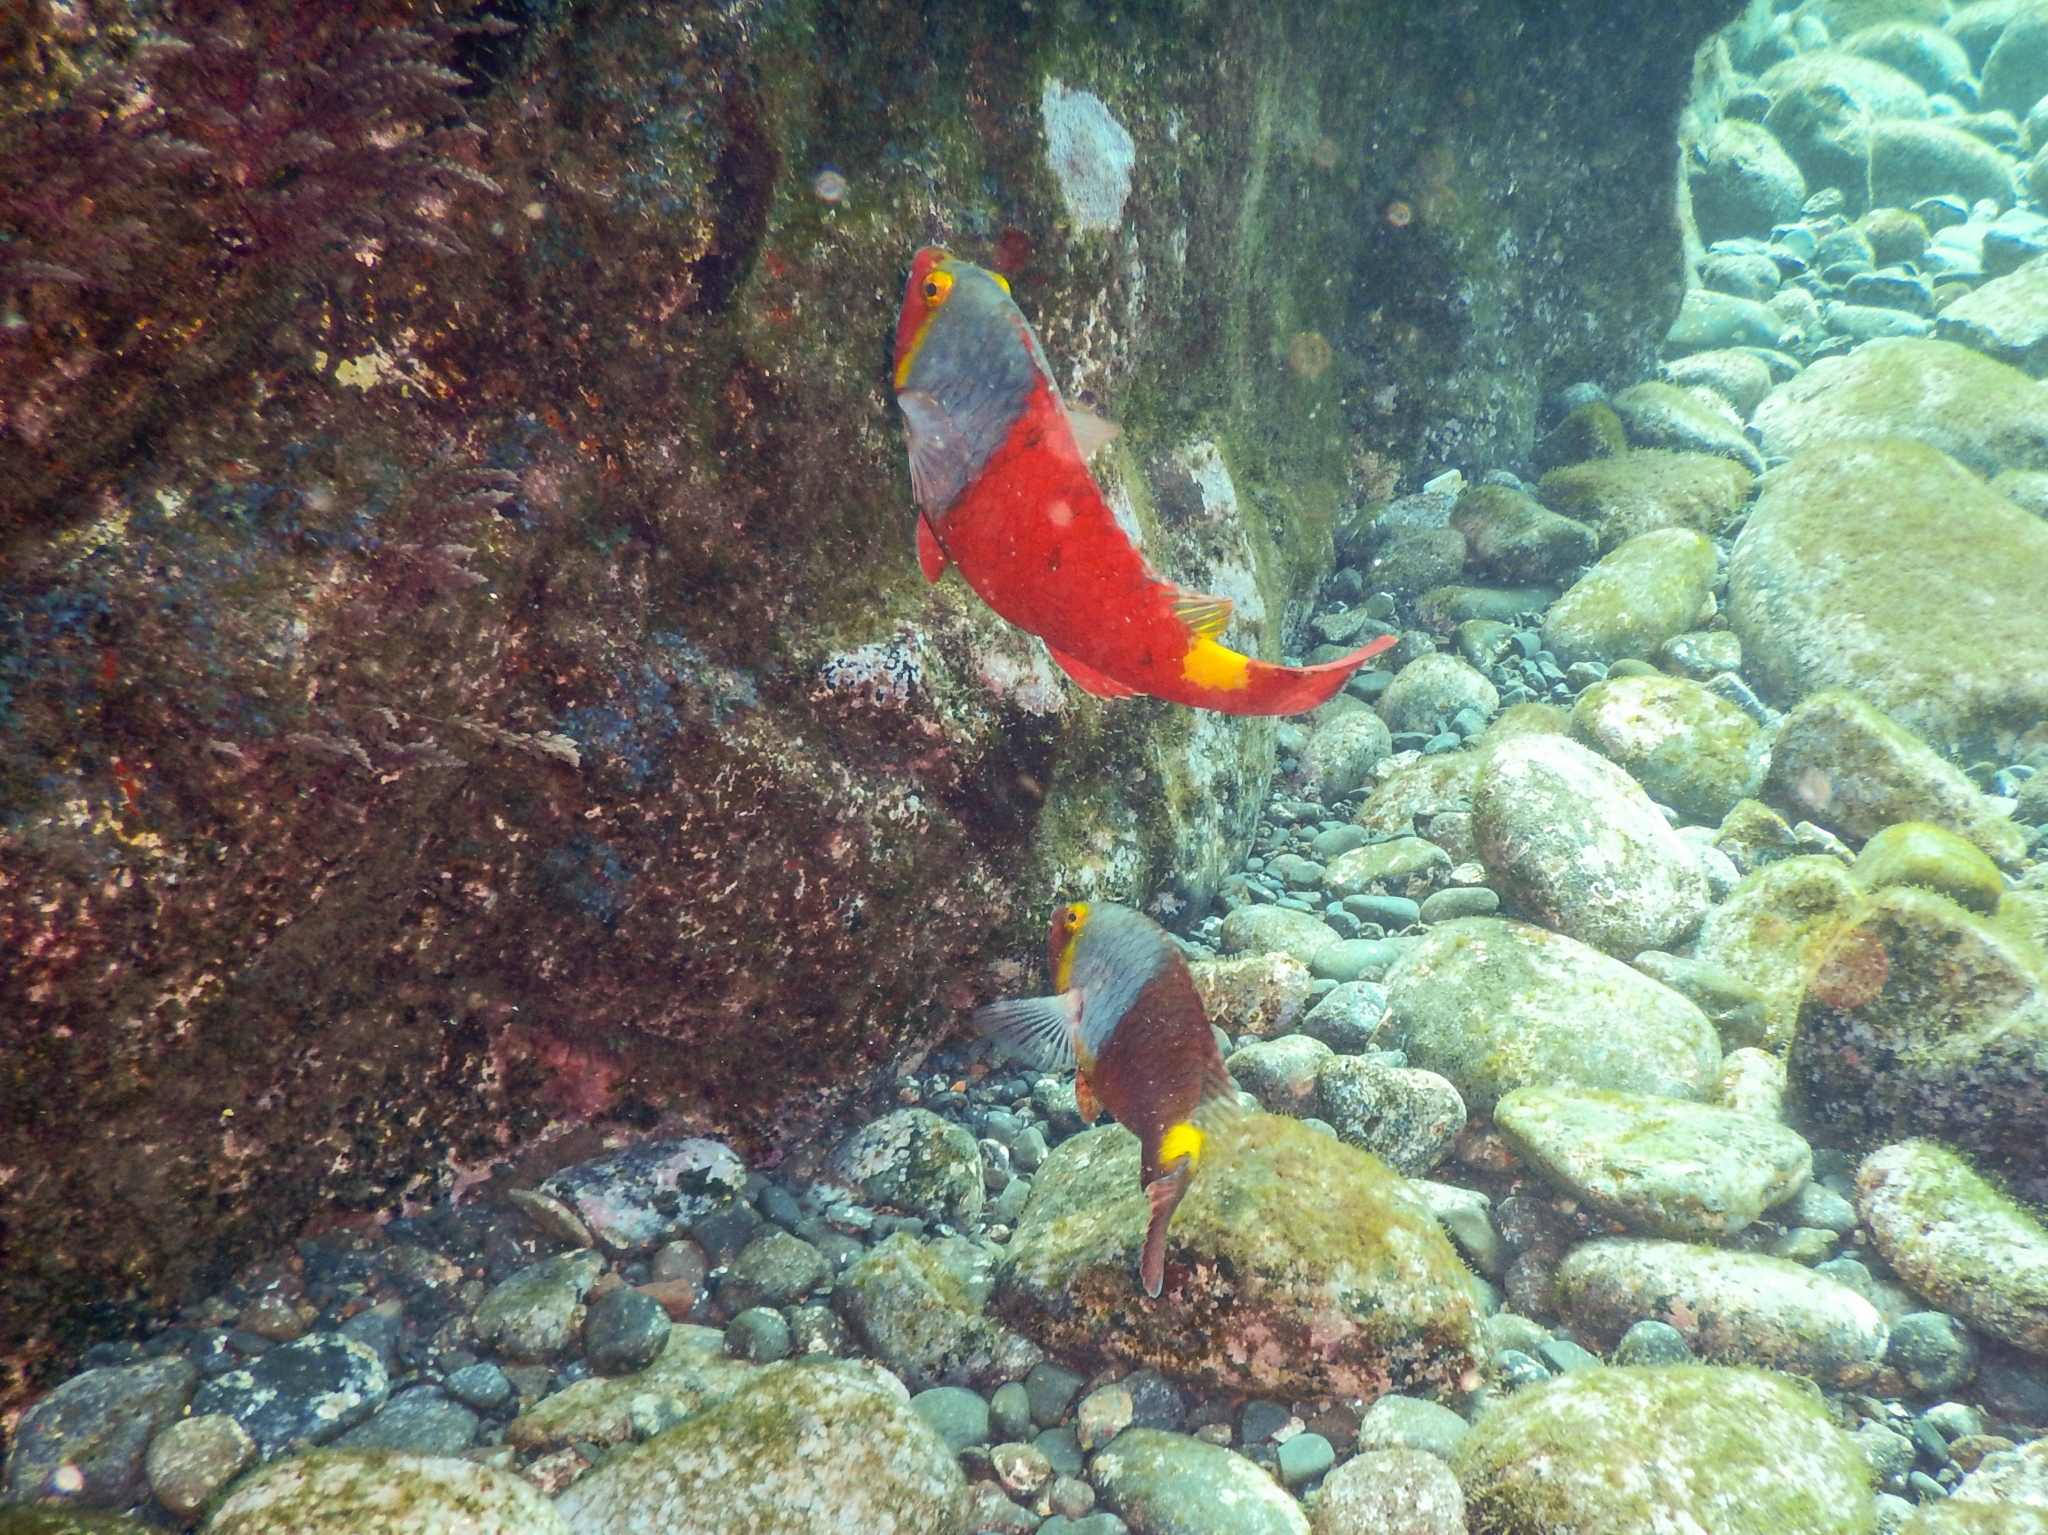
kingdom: Animalia
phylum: Chordata
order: Perciformes
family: Scaridae
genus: Sparisoma
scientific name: Sparisoma cretense
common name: Parrotfish
